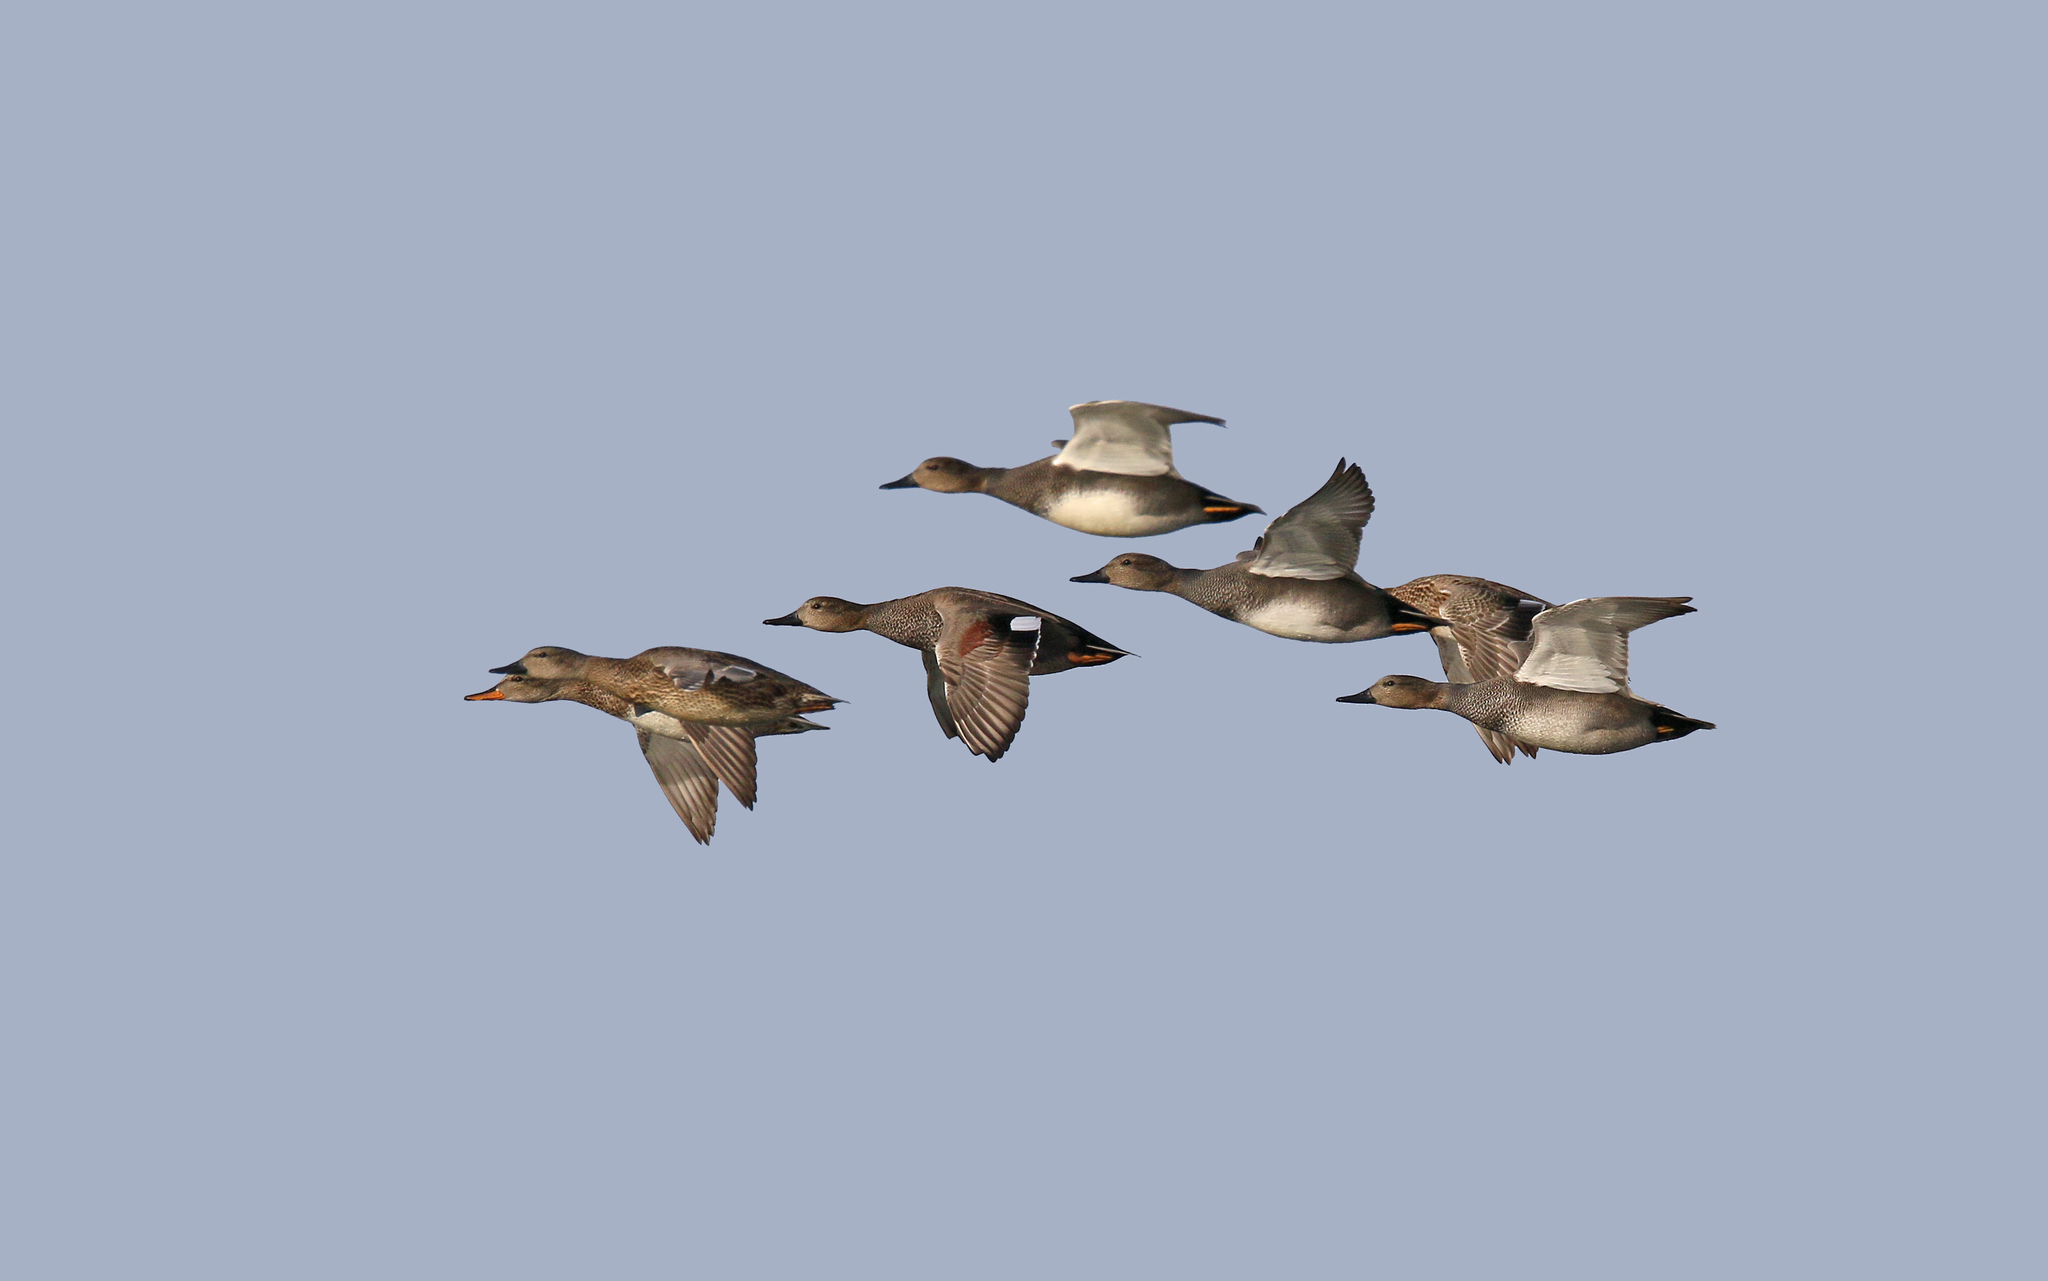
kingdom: Animalia
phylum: Chordata
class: Aves
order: Anseriformes
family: Anatidae
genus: Mareca
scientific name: Mareca strepera
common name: Gadwall
